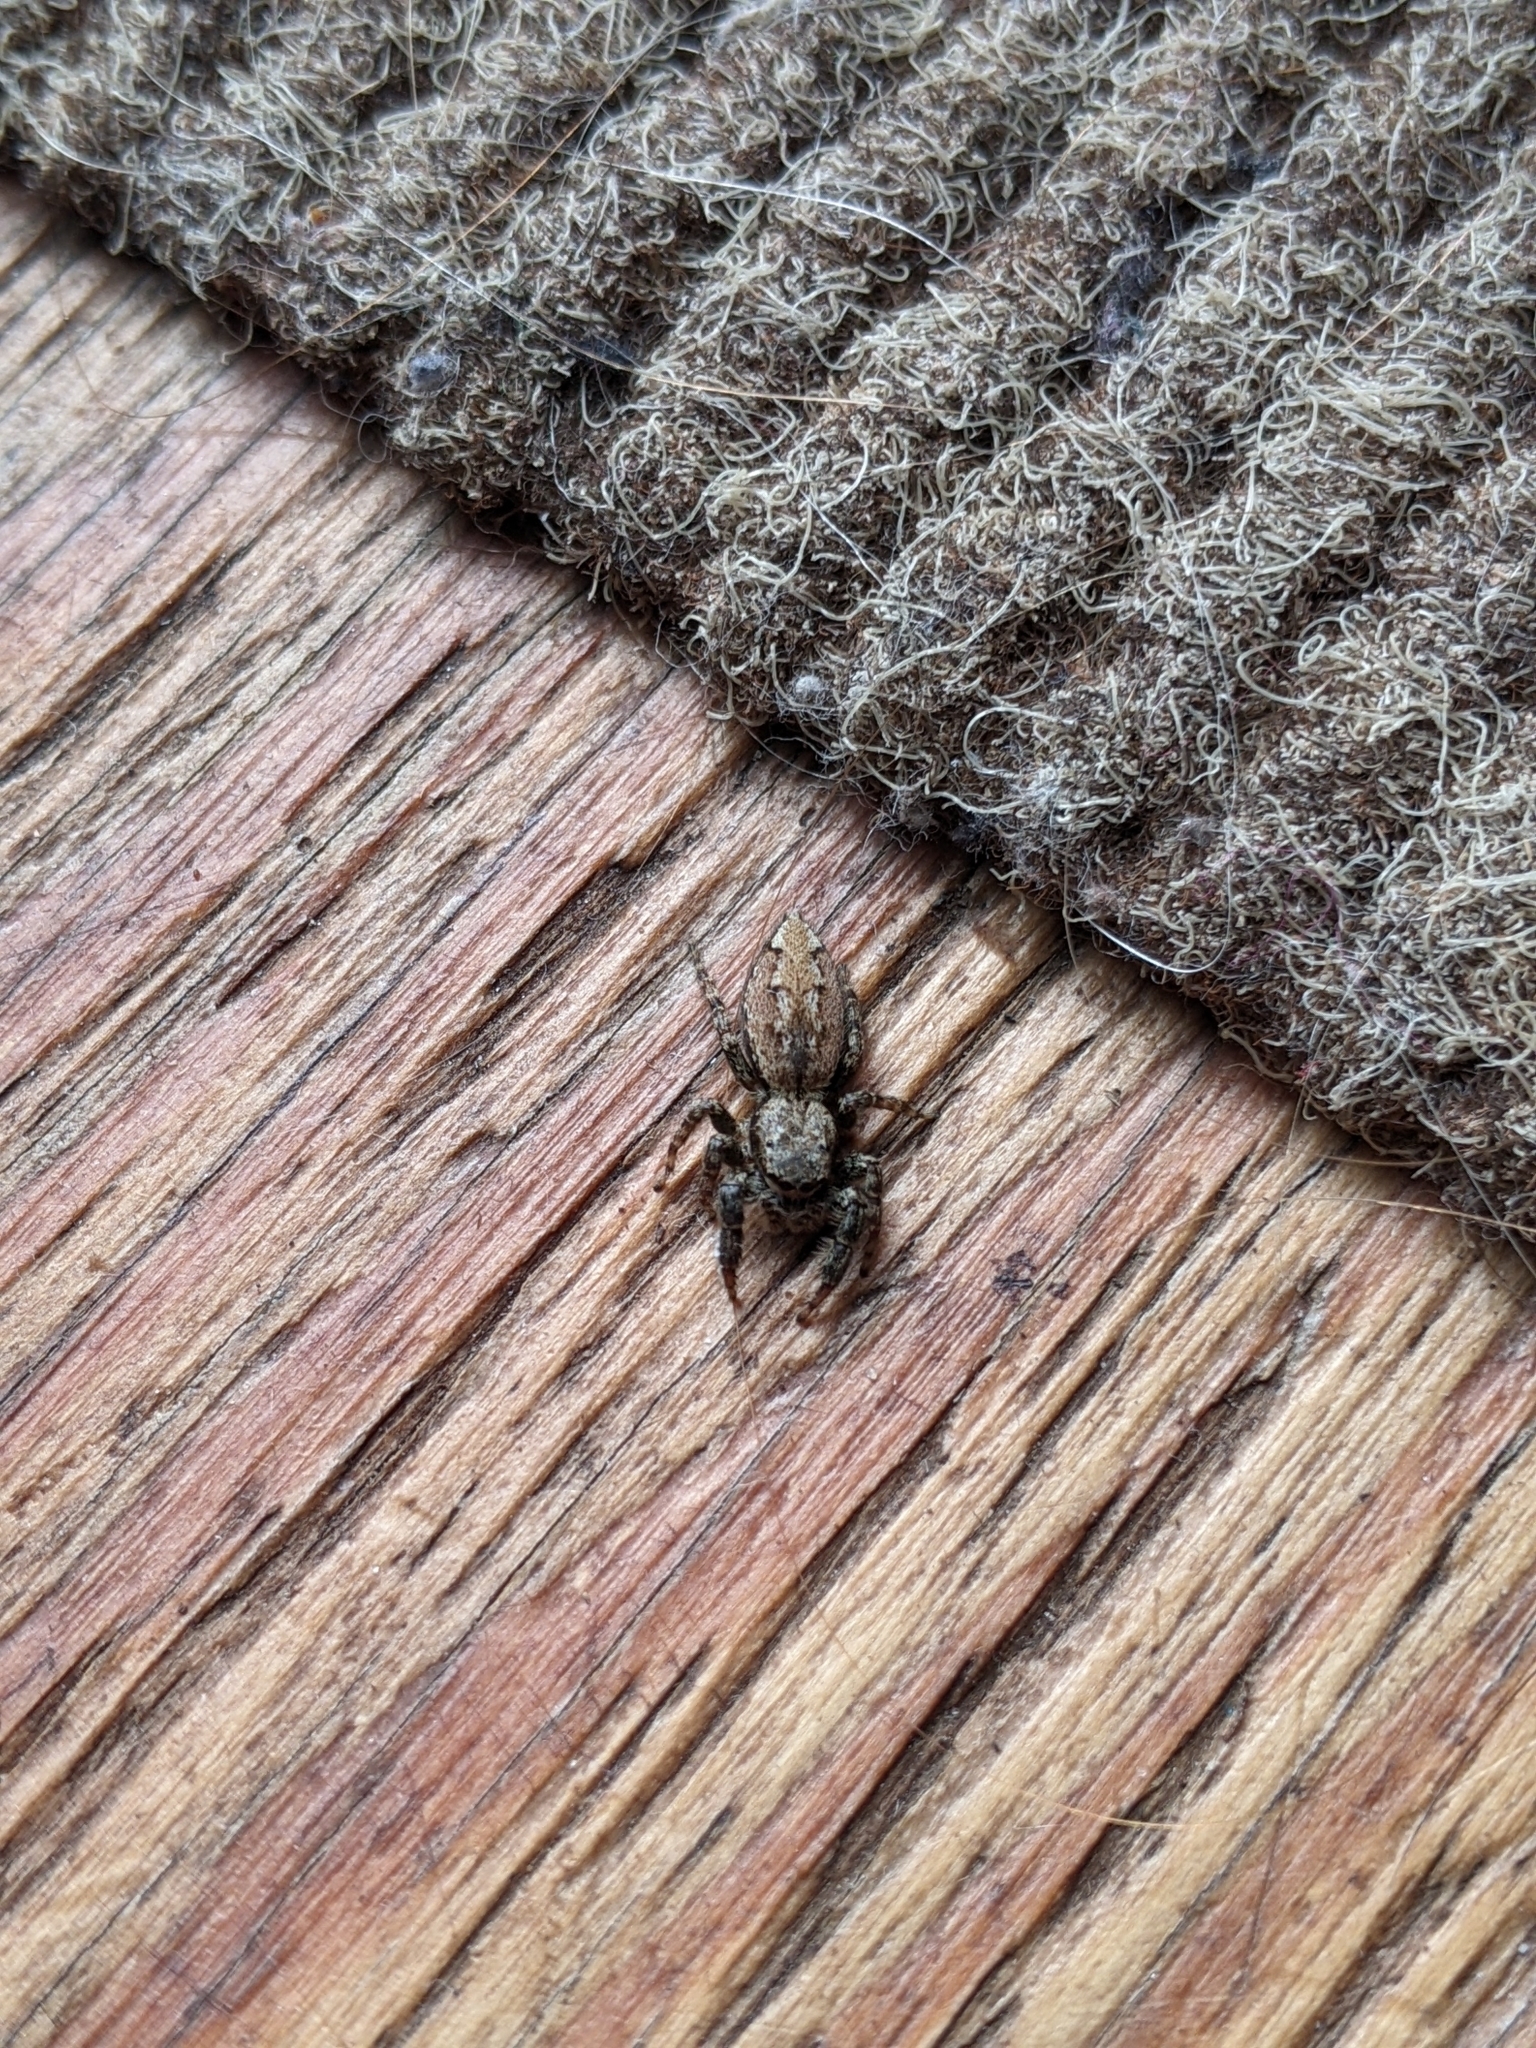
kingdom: Animalia
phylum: Arthropoda
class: Arachnida
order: Araneae
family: Salticidae
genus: Marpissa
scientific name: Marpissa muscosa
